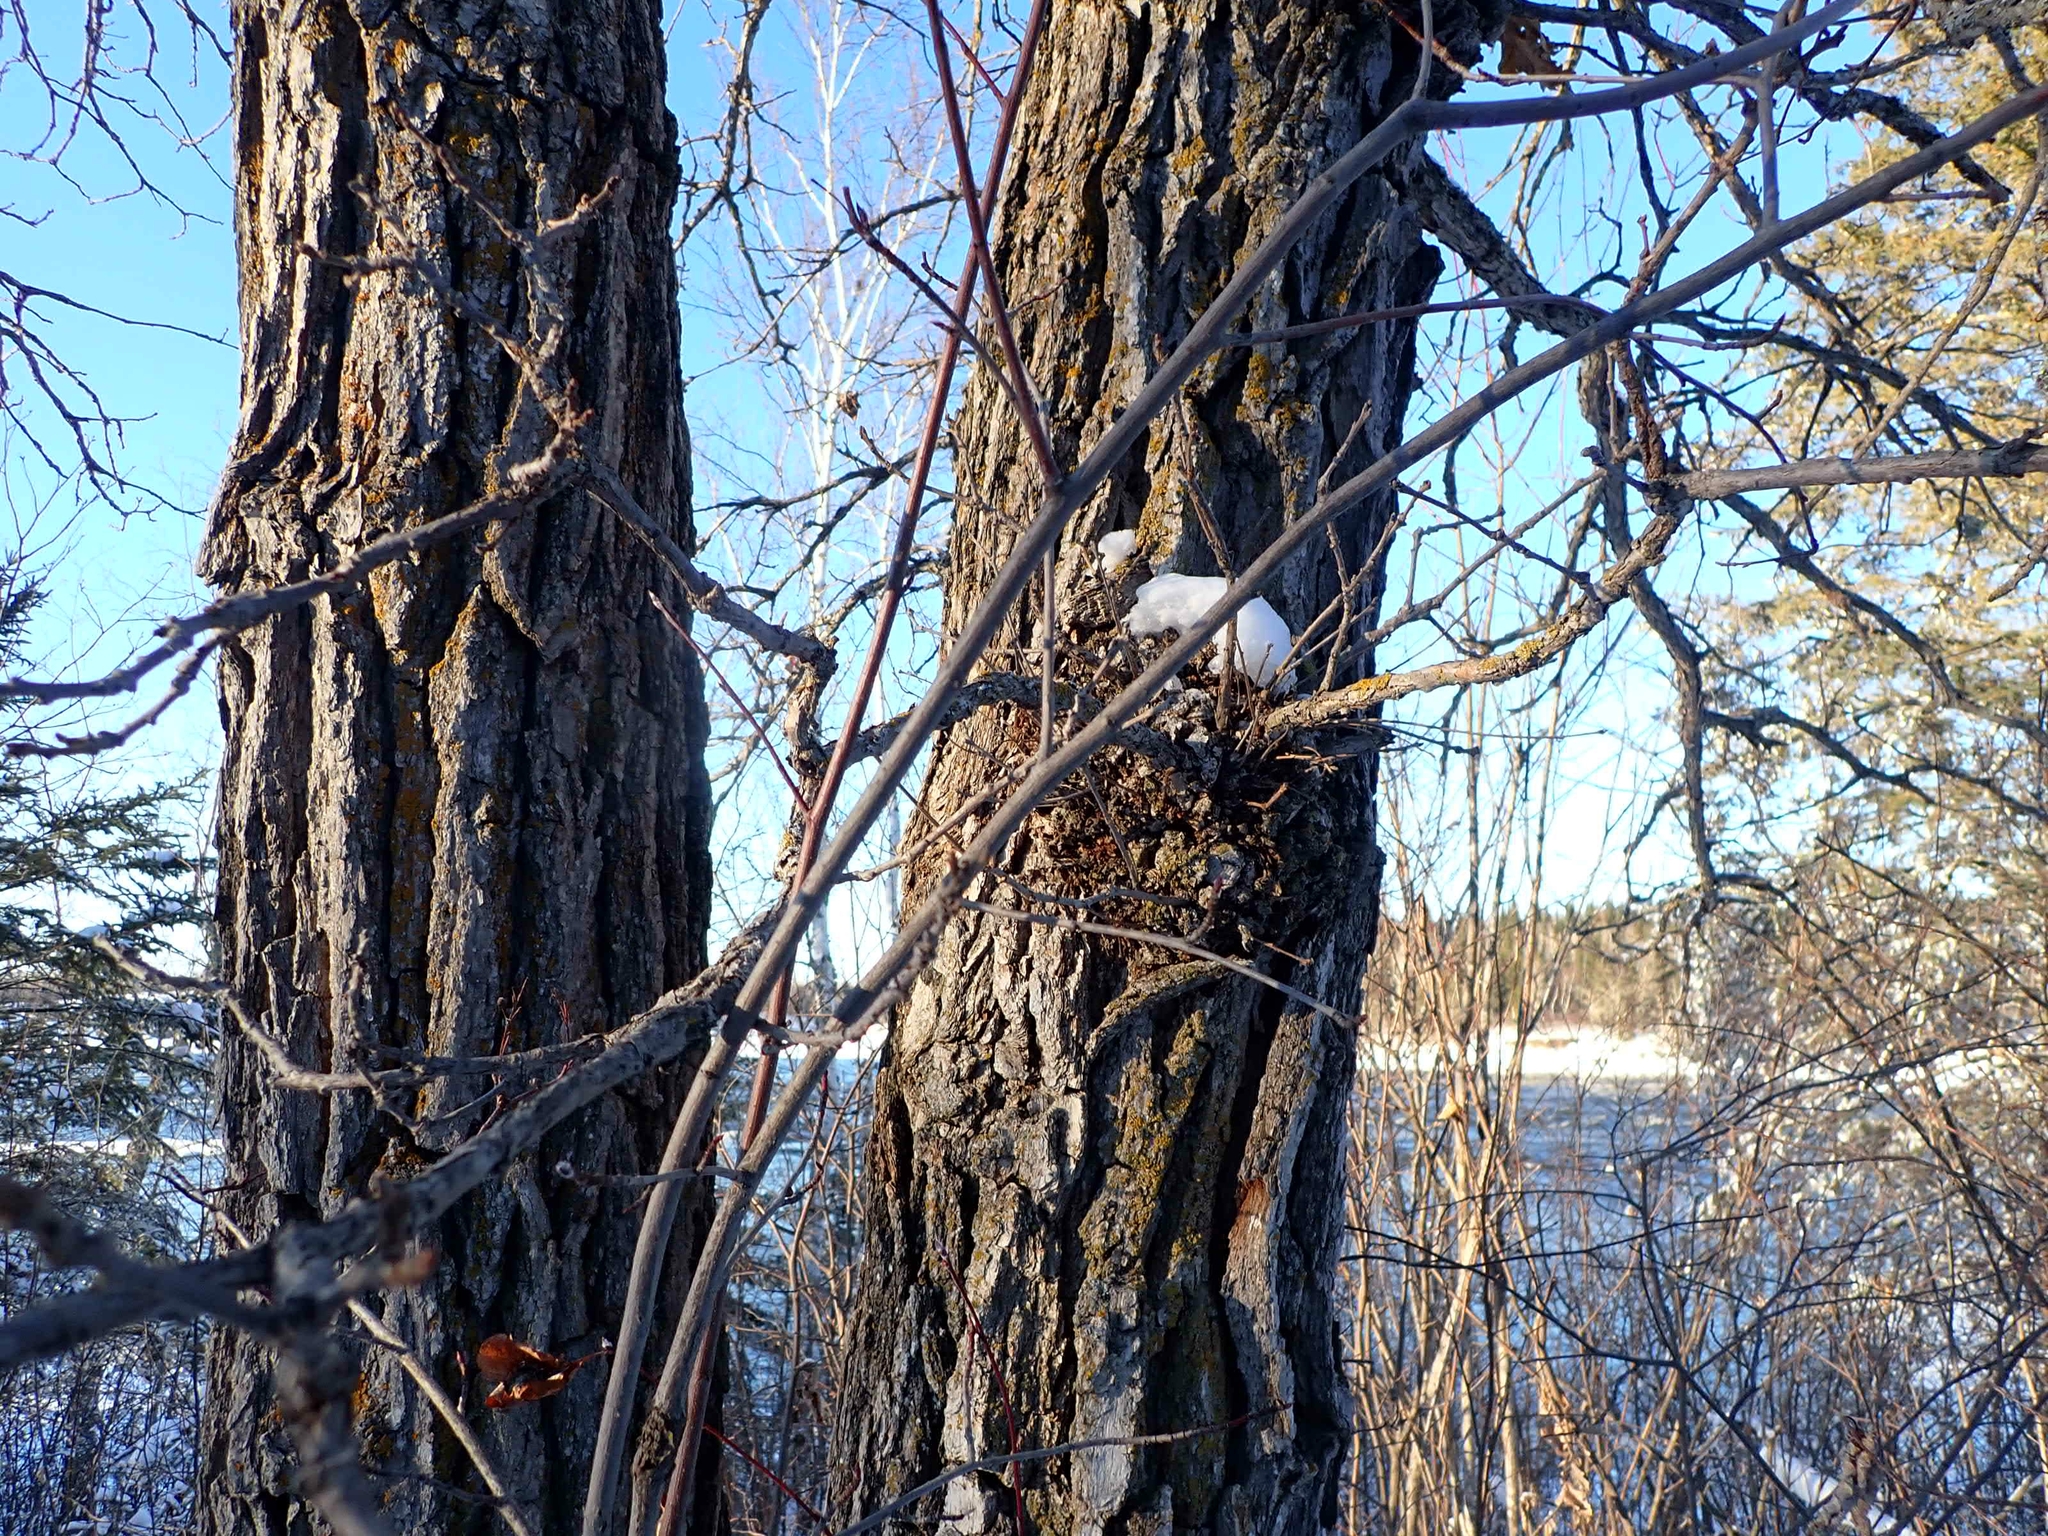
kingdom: Plantae
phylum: Tracheophyta
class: Magnoliopsida
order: Fagales
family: Fagaceae
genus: Quercus
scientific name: Quercus macrocarpa
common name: Bur oak
